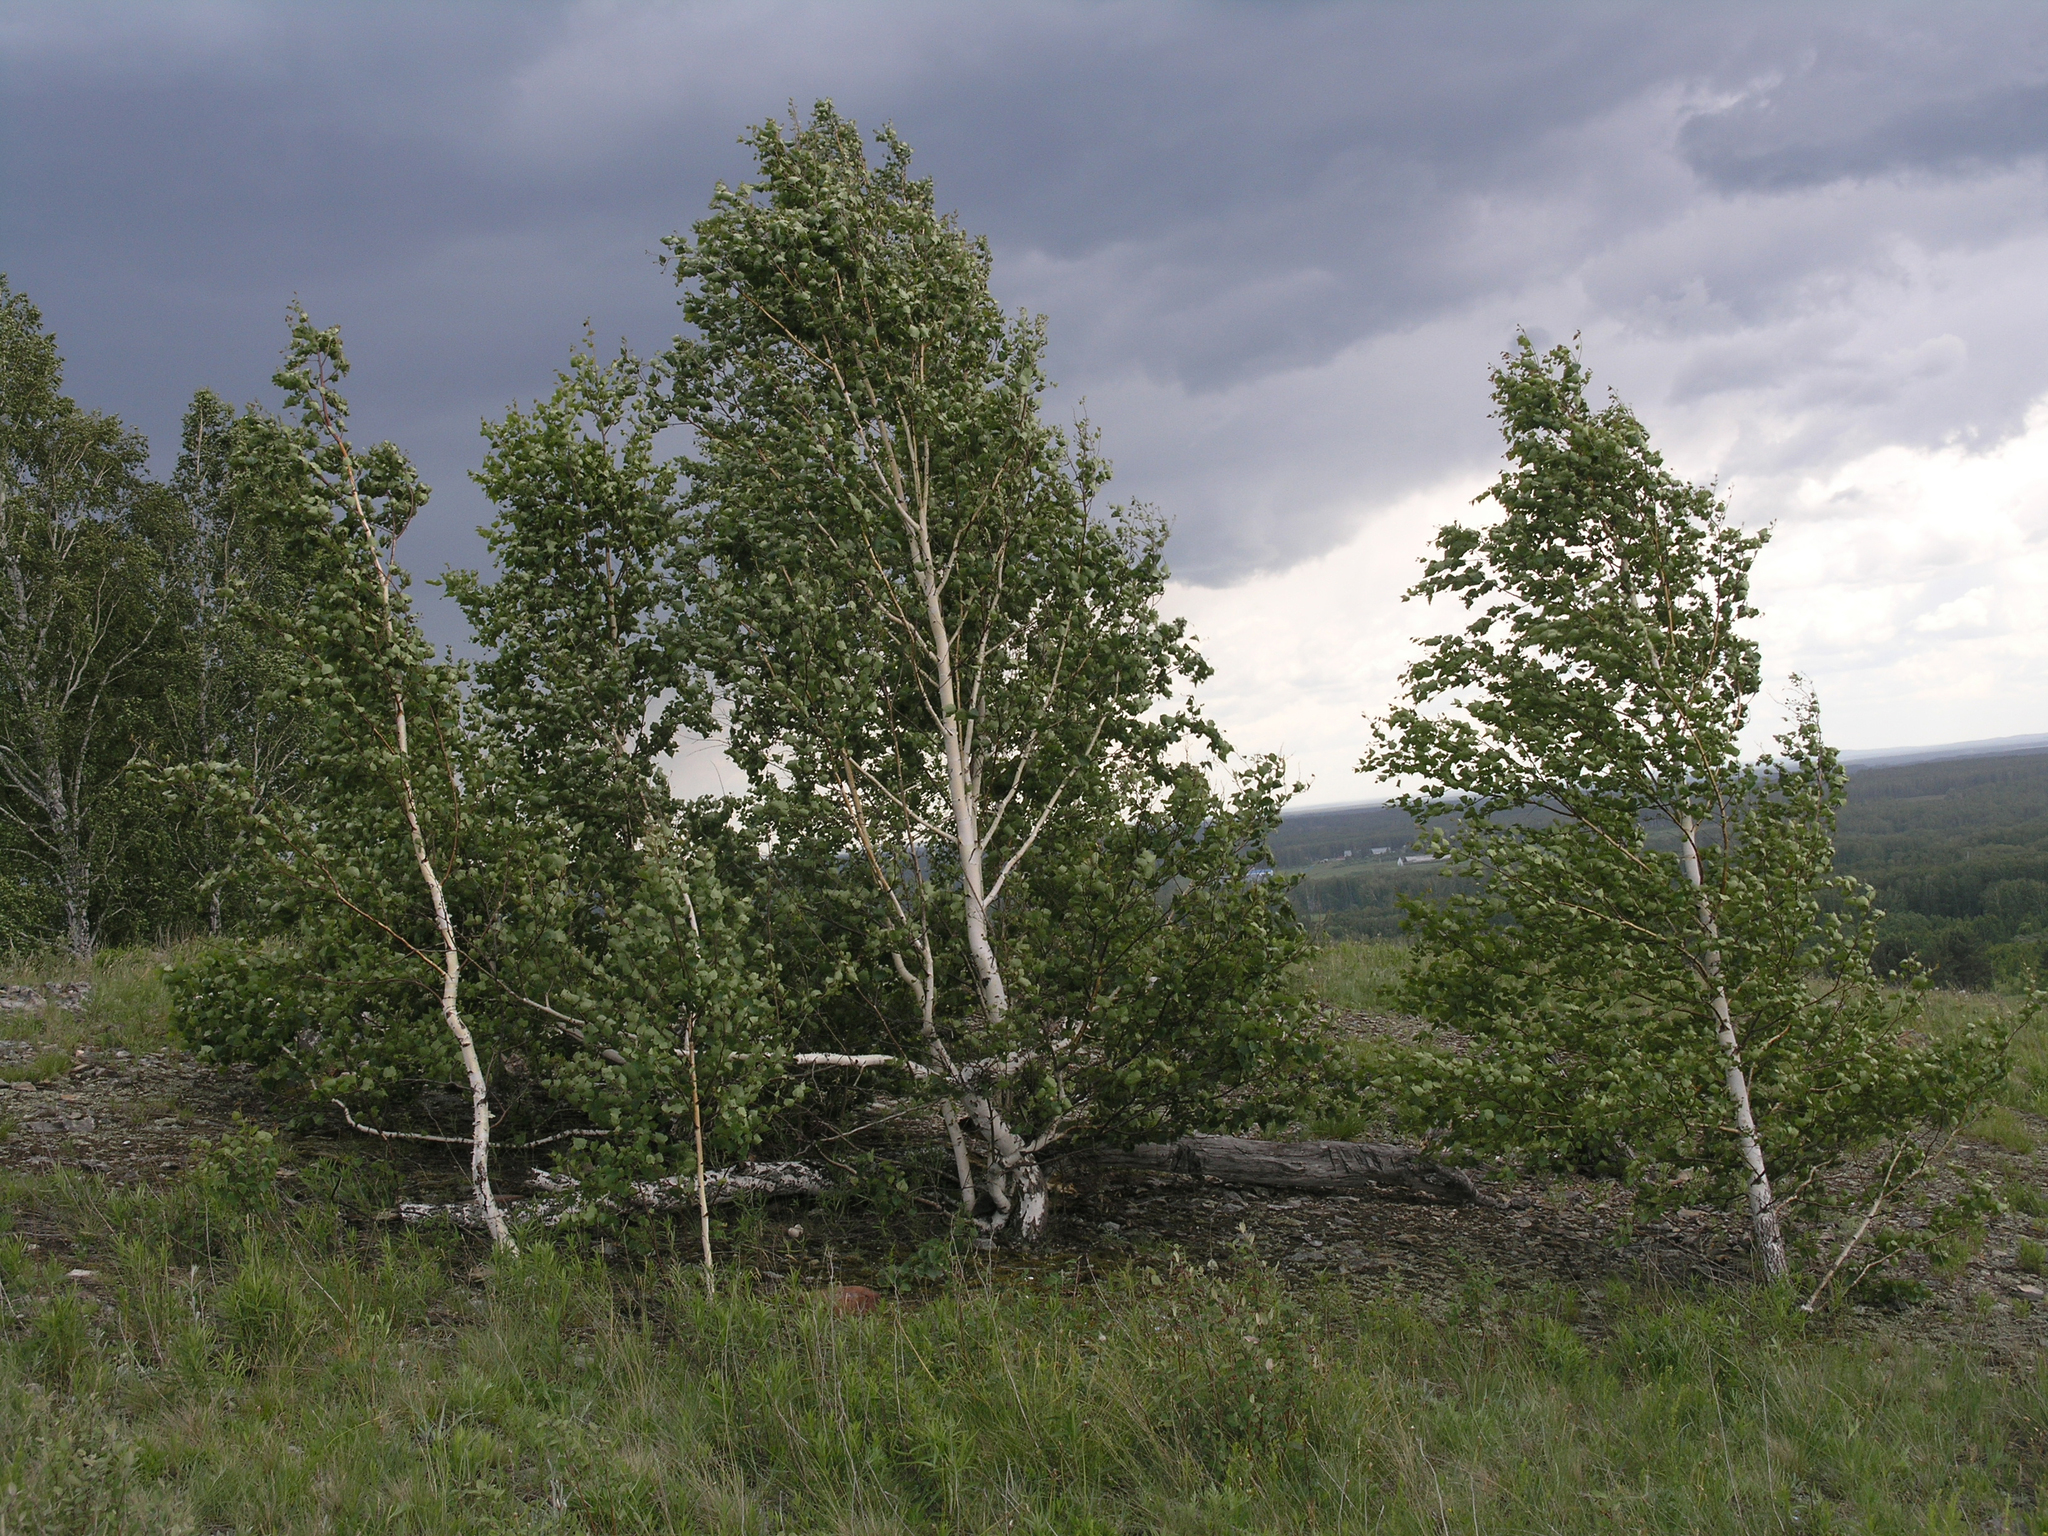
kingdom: Plantae
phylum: Tracheophyta
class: Magnoliopsida
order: Fagales
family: Betulaceae
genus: Betula
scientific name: Betula pendula
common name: Silver birch
